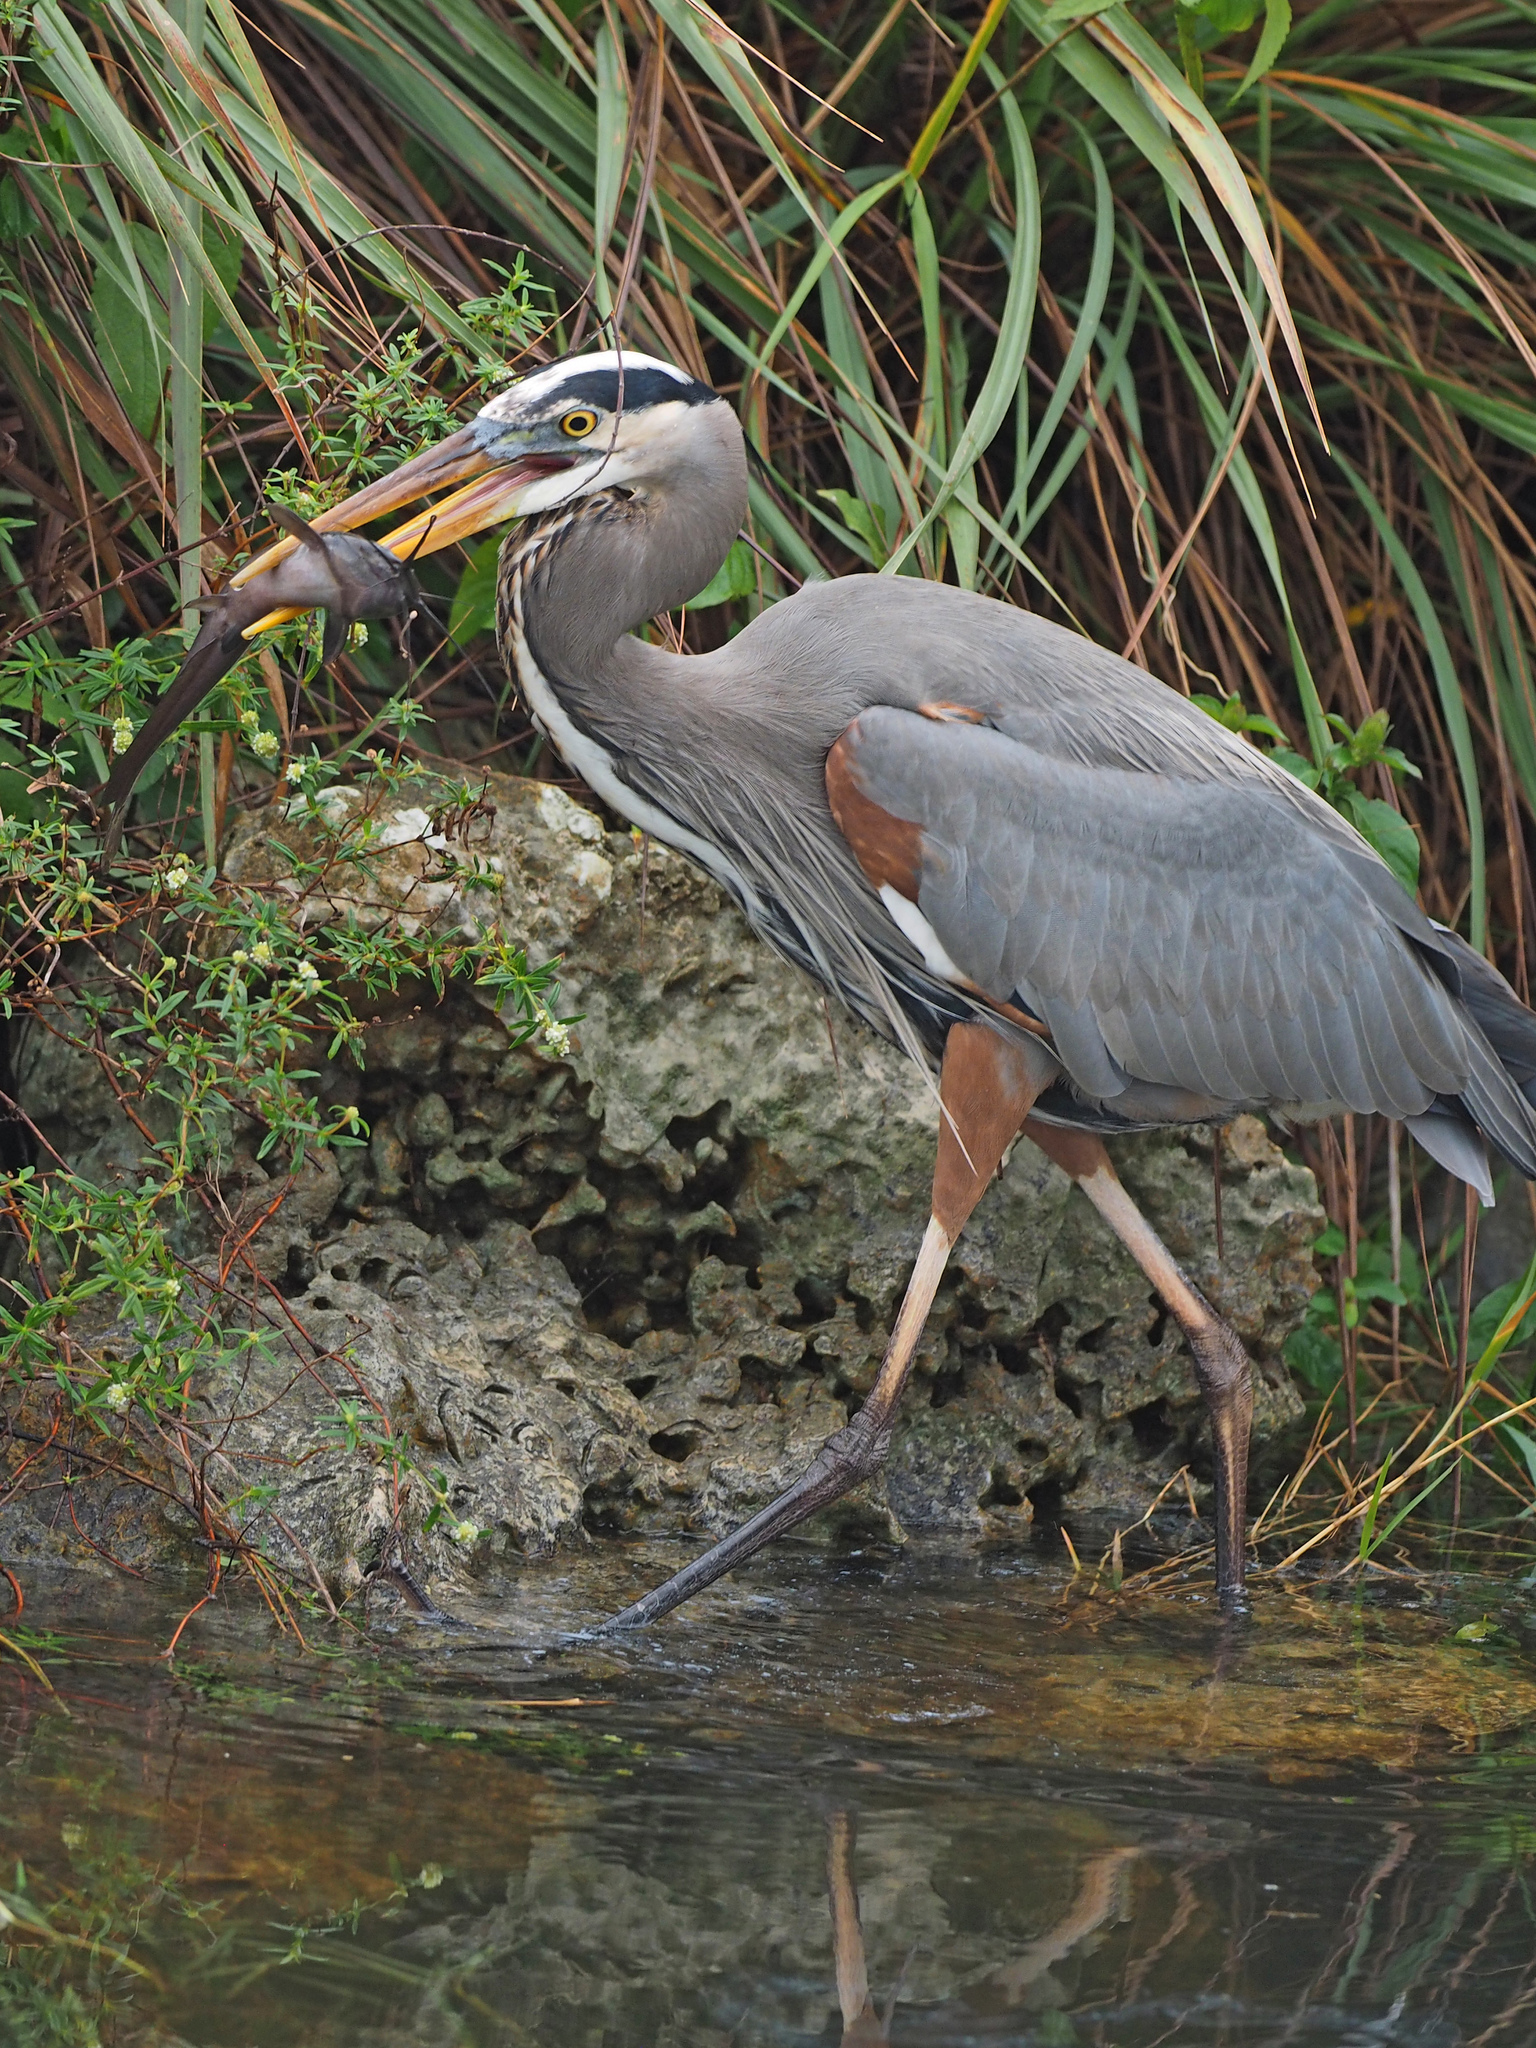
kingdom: Animalia
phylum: Chordata
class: Aves
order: Pelecaniformes
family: Ardeidae
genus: Ardea
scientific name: Ardea herodias
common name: Great blue heron
